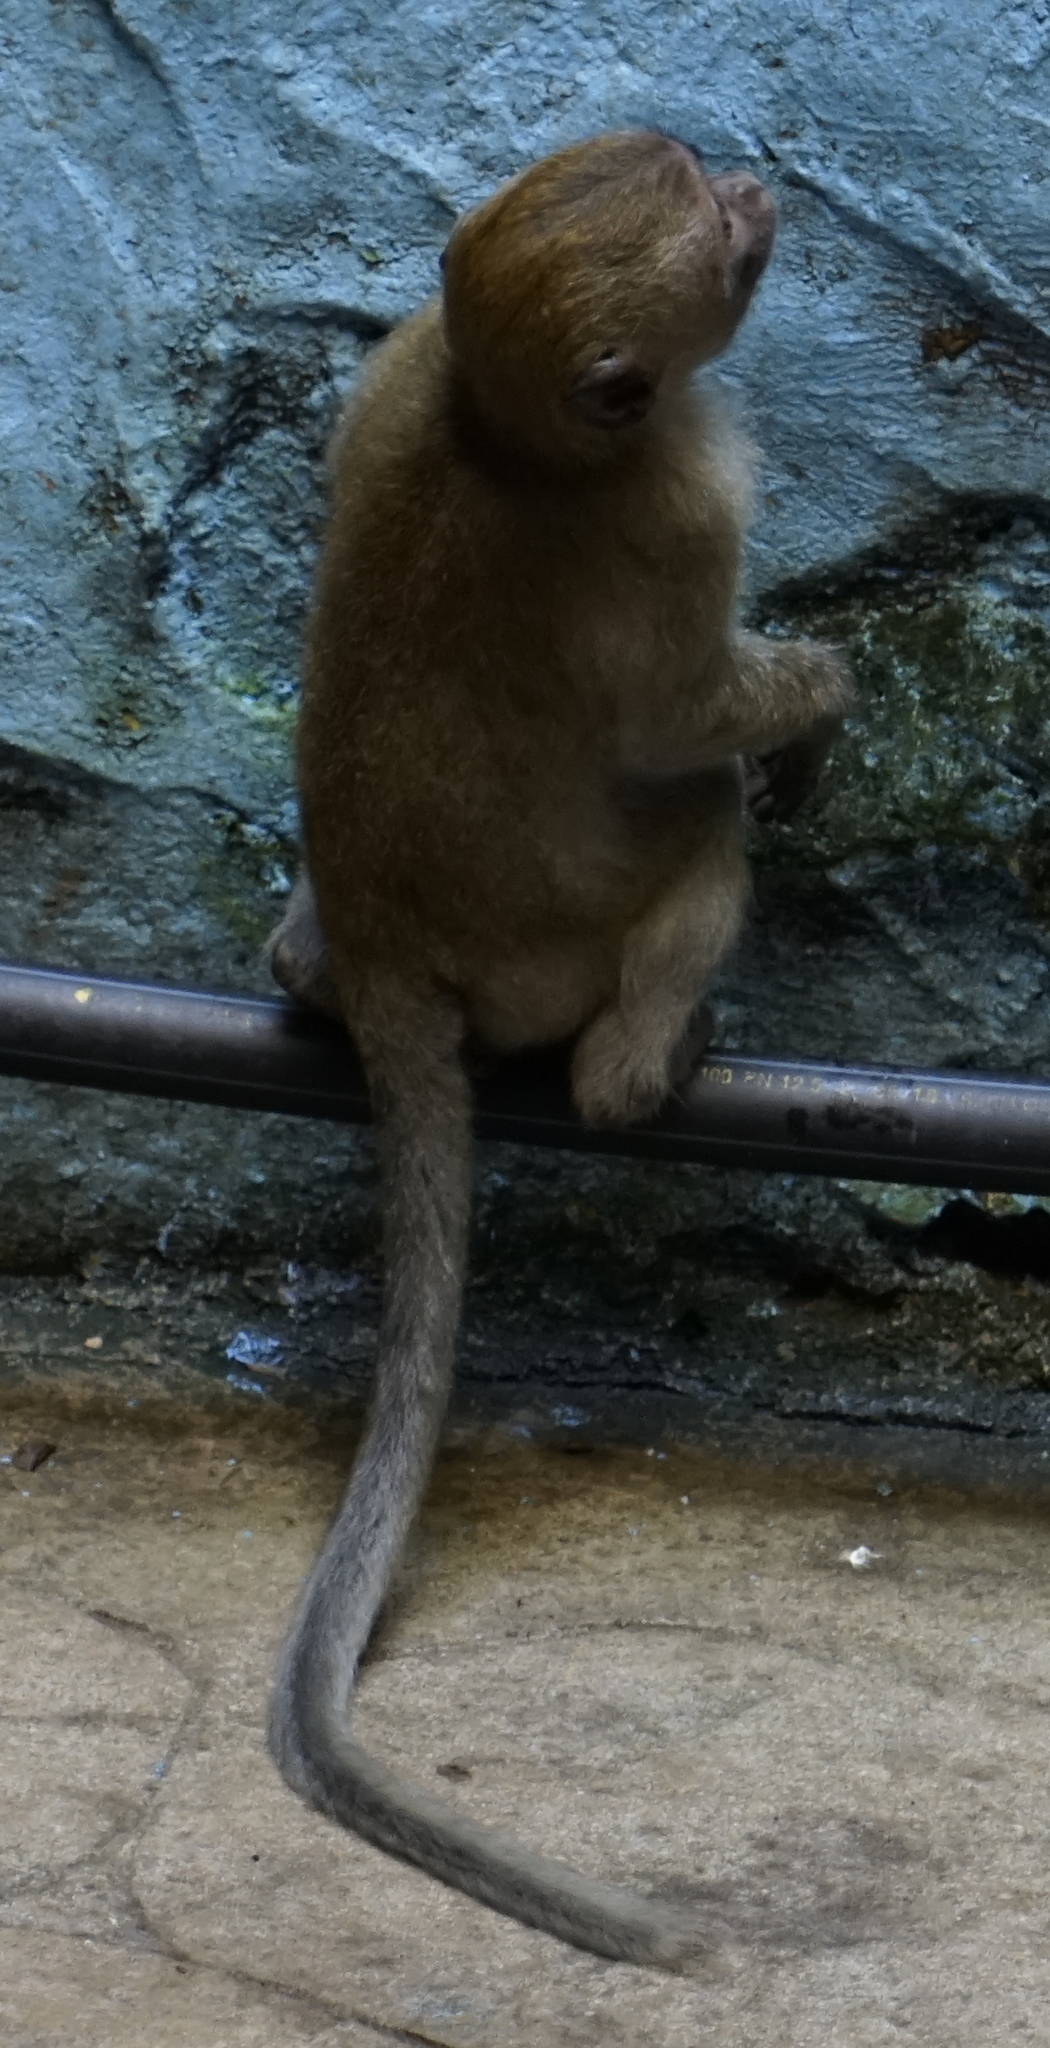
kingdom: Animalia
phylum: Chordata
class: Mammalia
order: Primates
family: Cercopithecidae
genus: Macaca
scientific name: Macaca fascicularis
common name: Crab-eating macaque
